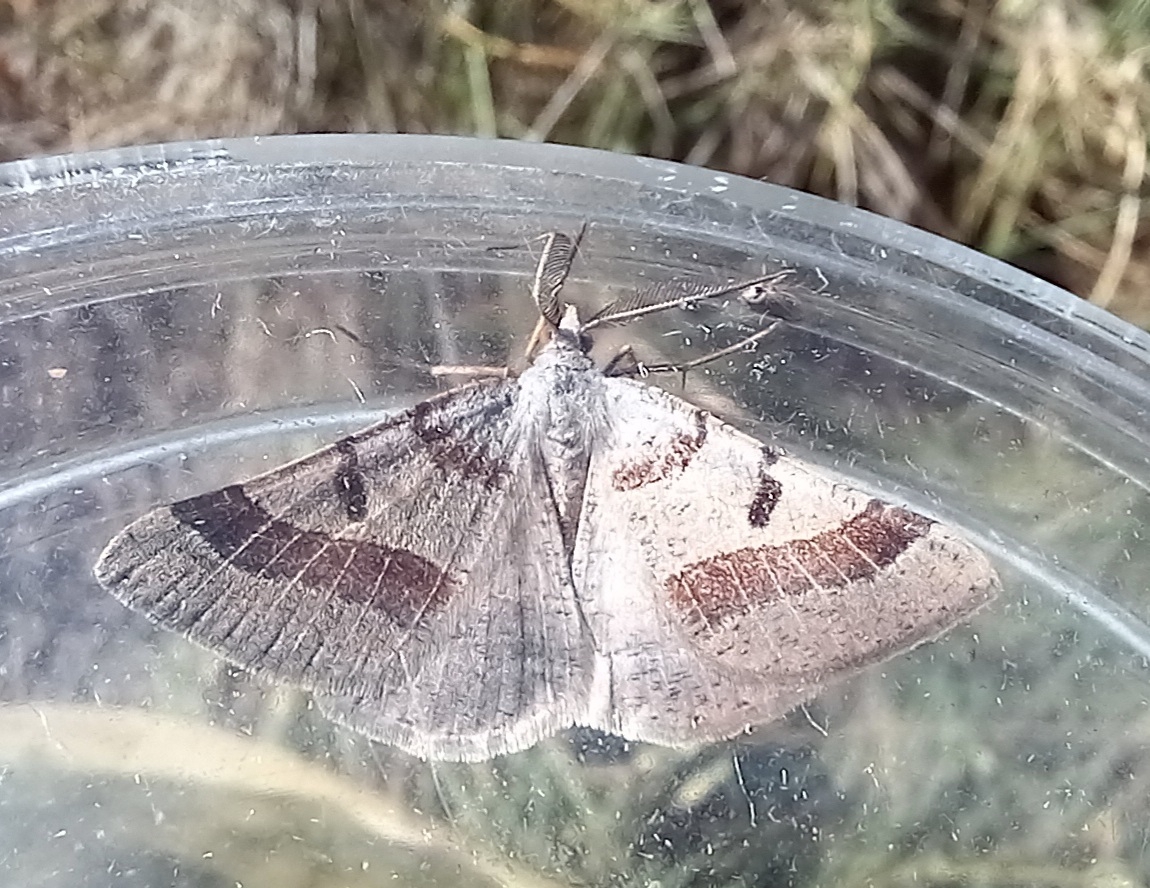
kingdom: Animalia
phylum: Arthropoda
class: Insecta
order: Lepidoptera
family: Geometridae
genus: Itame
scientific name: Itame vincularia
